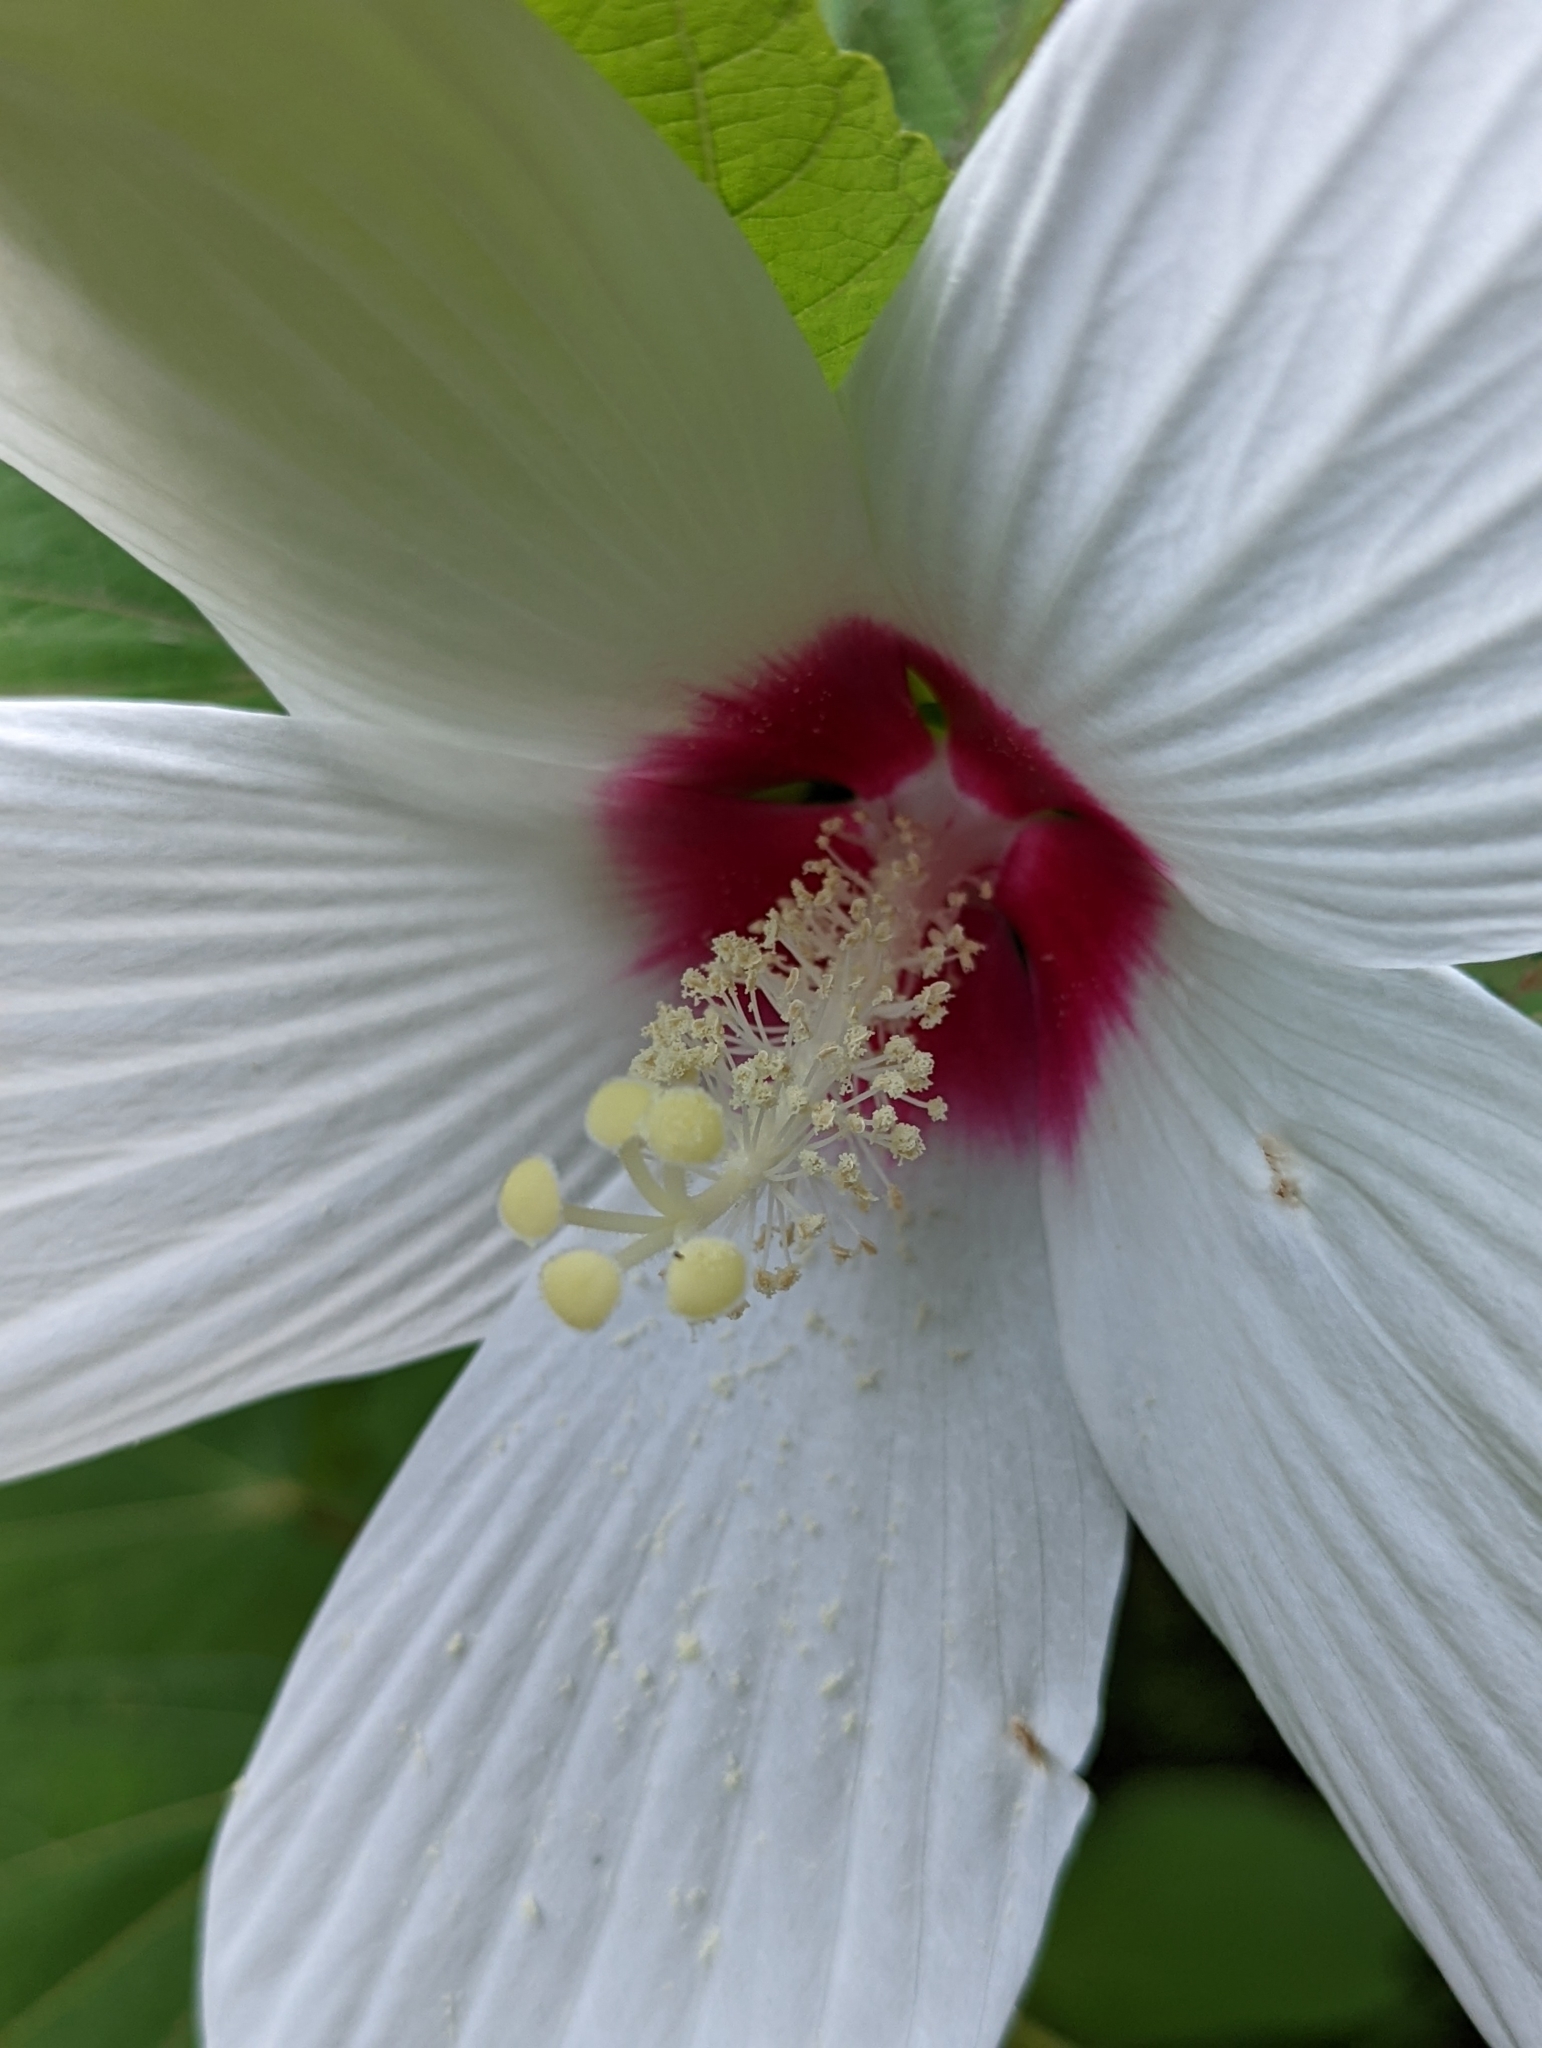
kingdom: Plantae
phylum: Tracheophyta
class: Magnoliopsida
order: Malvales
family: Malvaceae
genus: Hibiscus
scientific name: Hibiscus moscheutos
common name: Common rose-mallow
